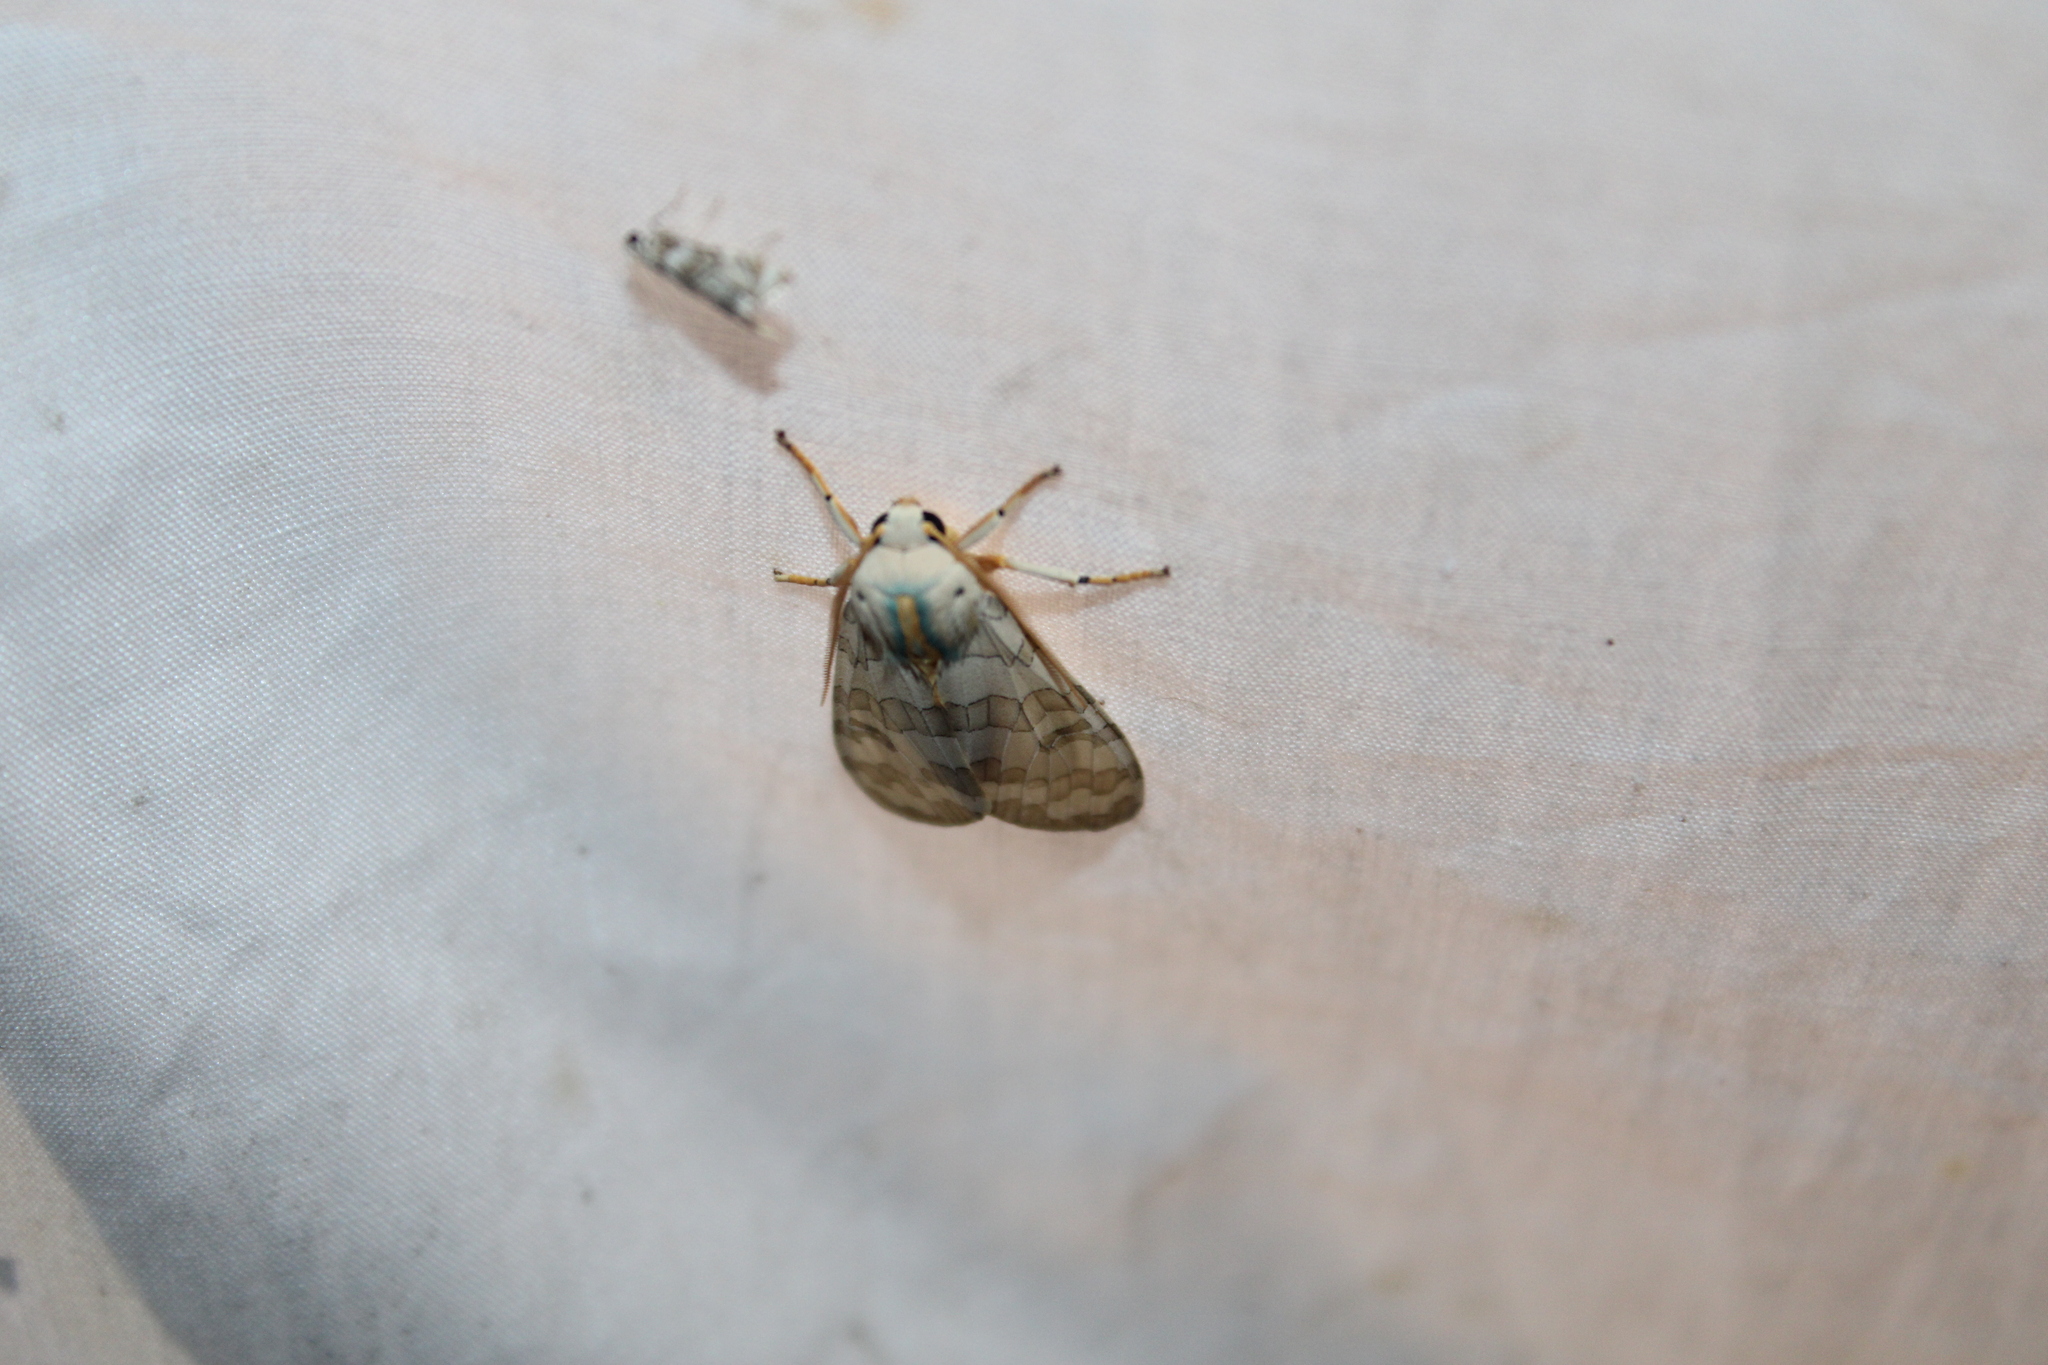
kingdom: Animalia
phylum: Arthropoda
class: Insecta
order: Lepidoptera
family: Erebidae
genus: Halysidota
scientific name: Halysidota
